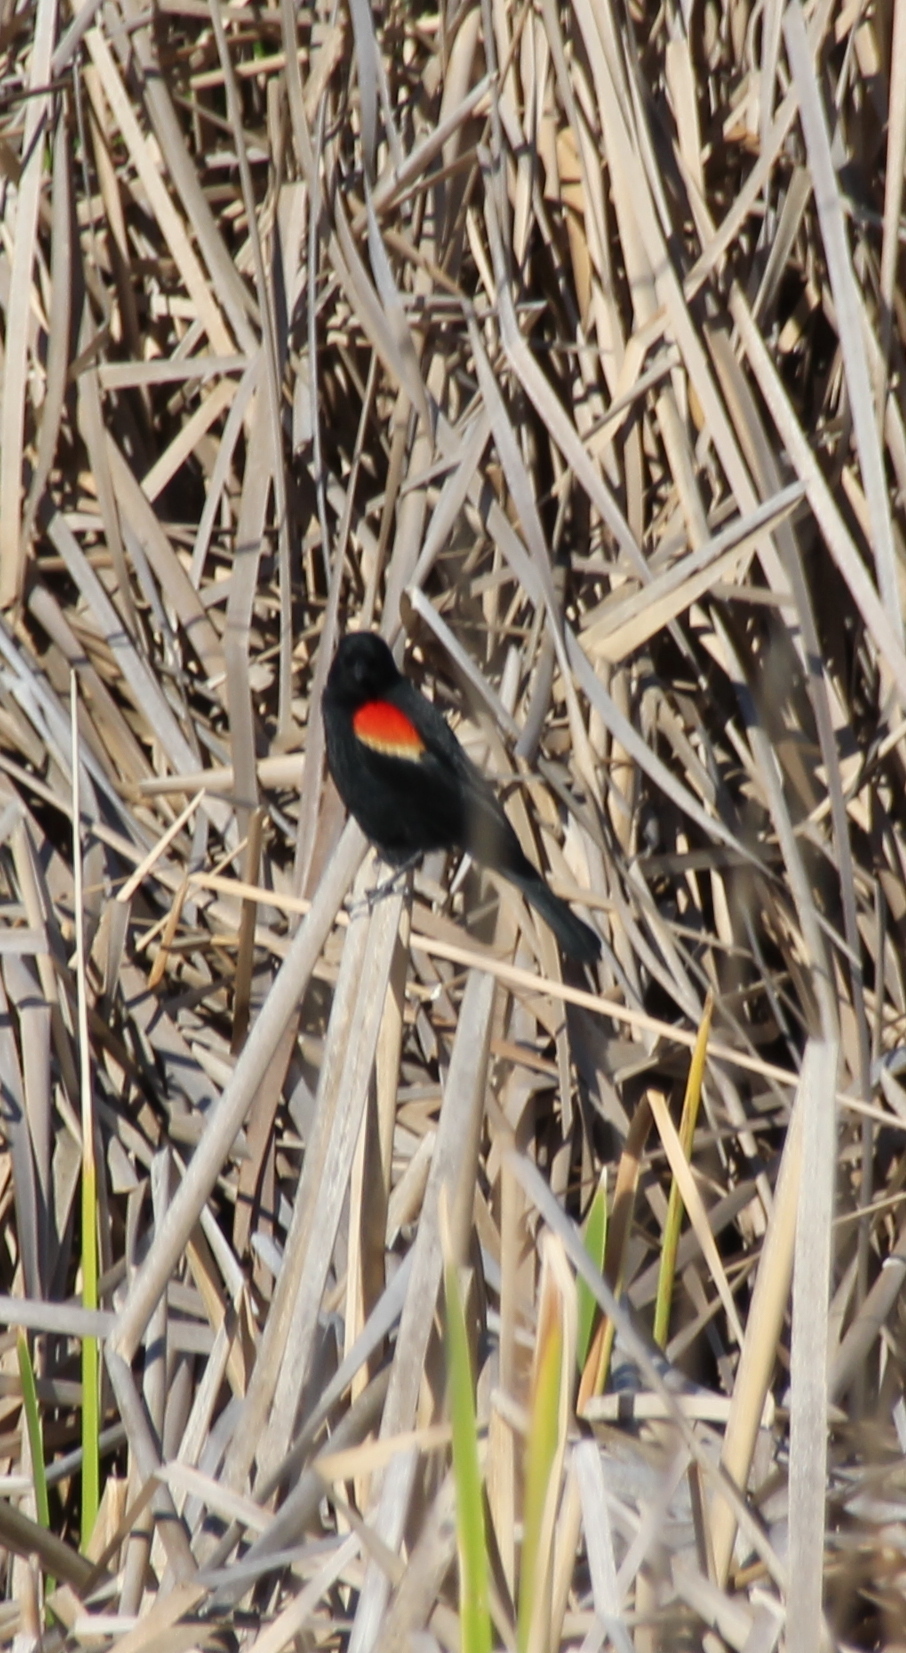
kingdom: Animalia
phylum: Chordata
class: Aves
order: Passeriformes
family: Icteridae
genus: Agelaius
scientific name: Agelaius phoeniceus
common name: Red-winged blackbird
